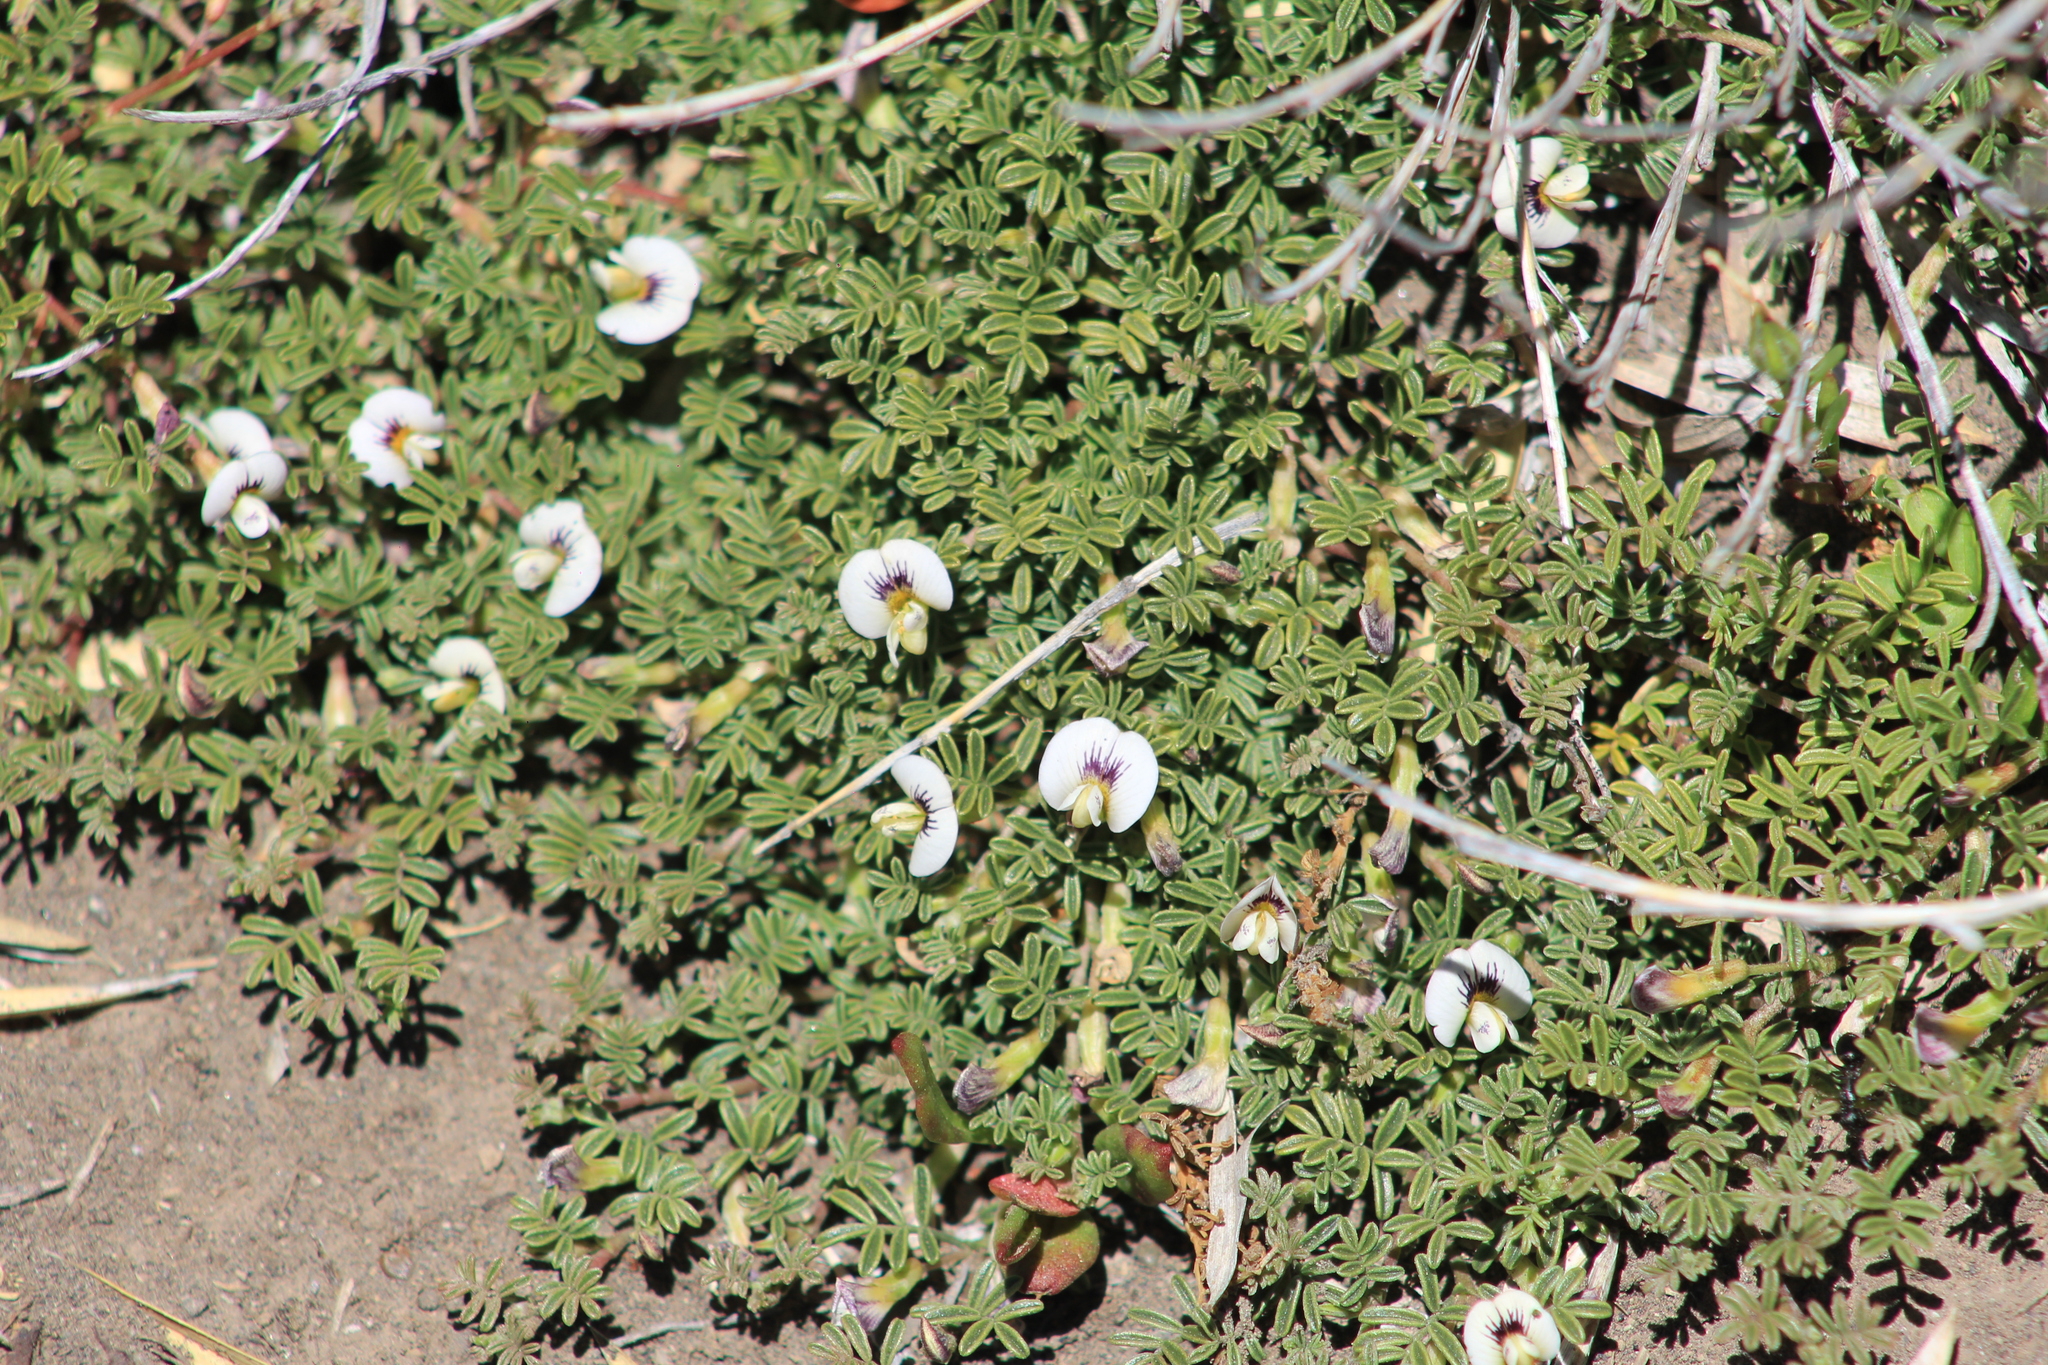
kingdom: Plantae
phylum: Tracheophyta
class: Magnoliopsida
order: Fabales
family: Fabaceae
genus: Adesmia
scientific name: Adesmia parvifolia
